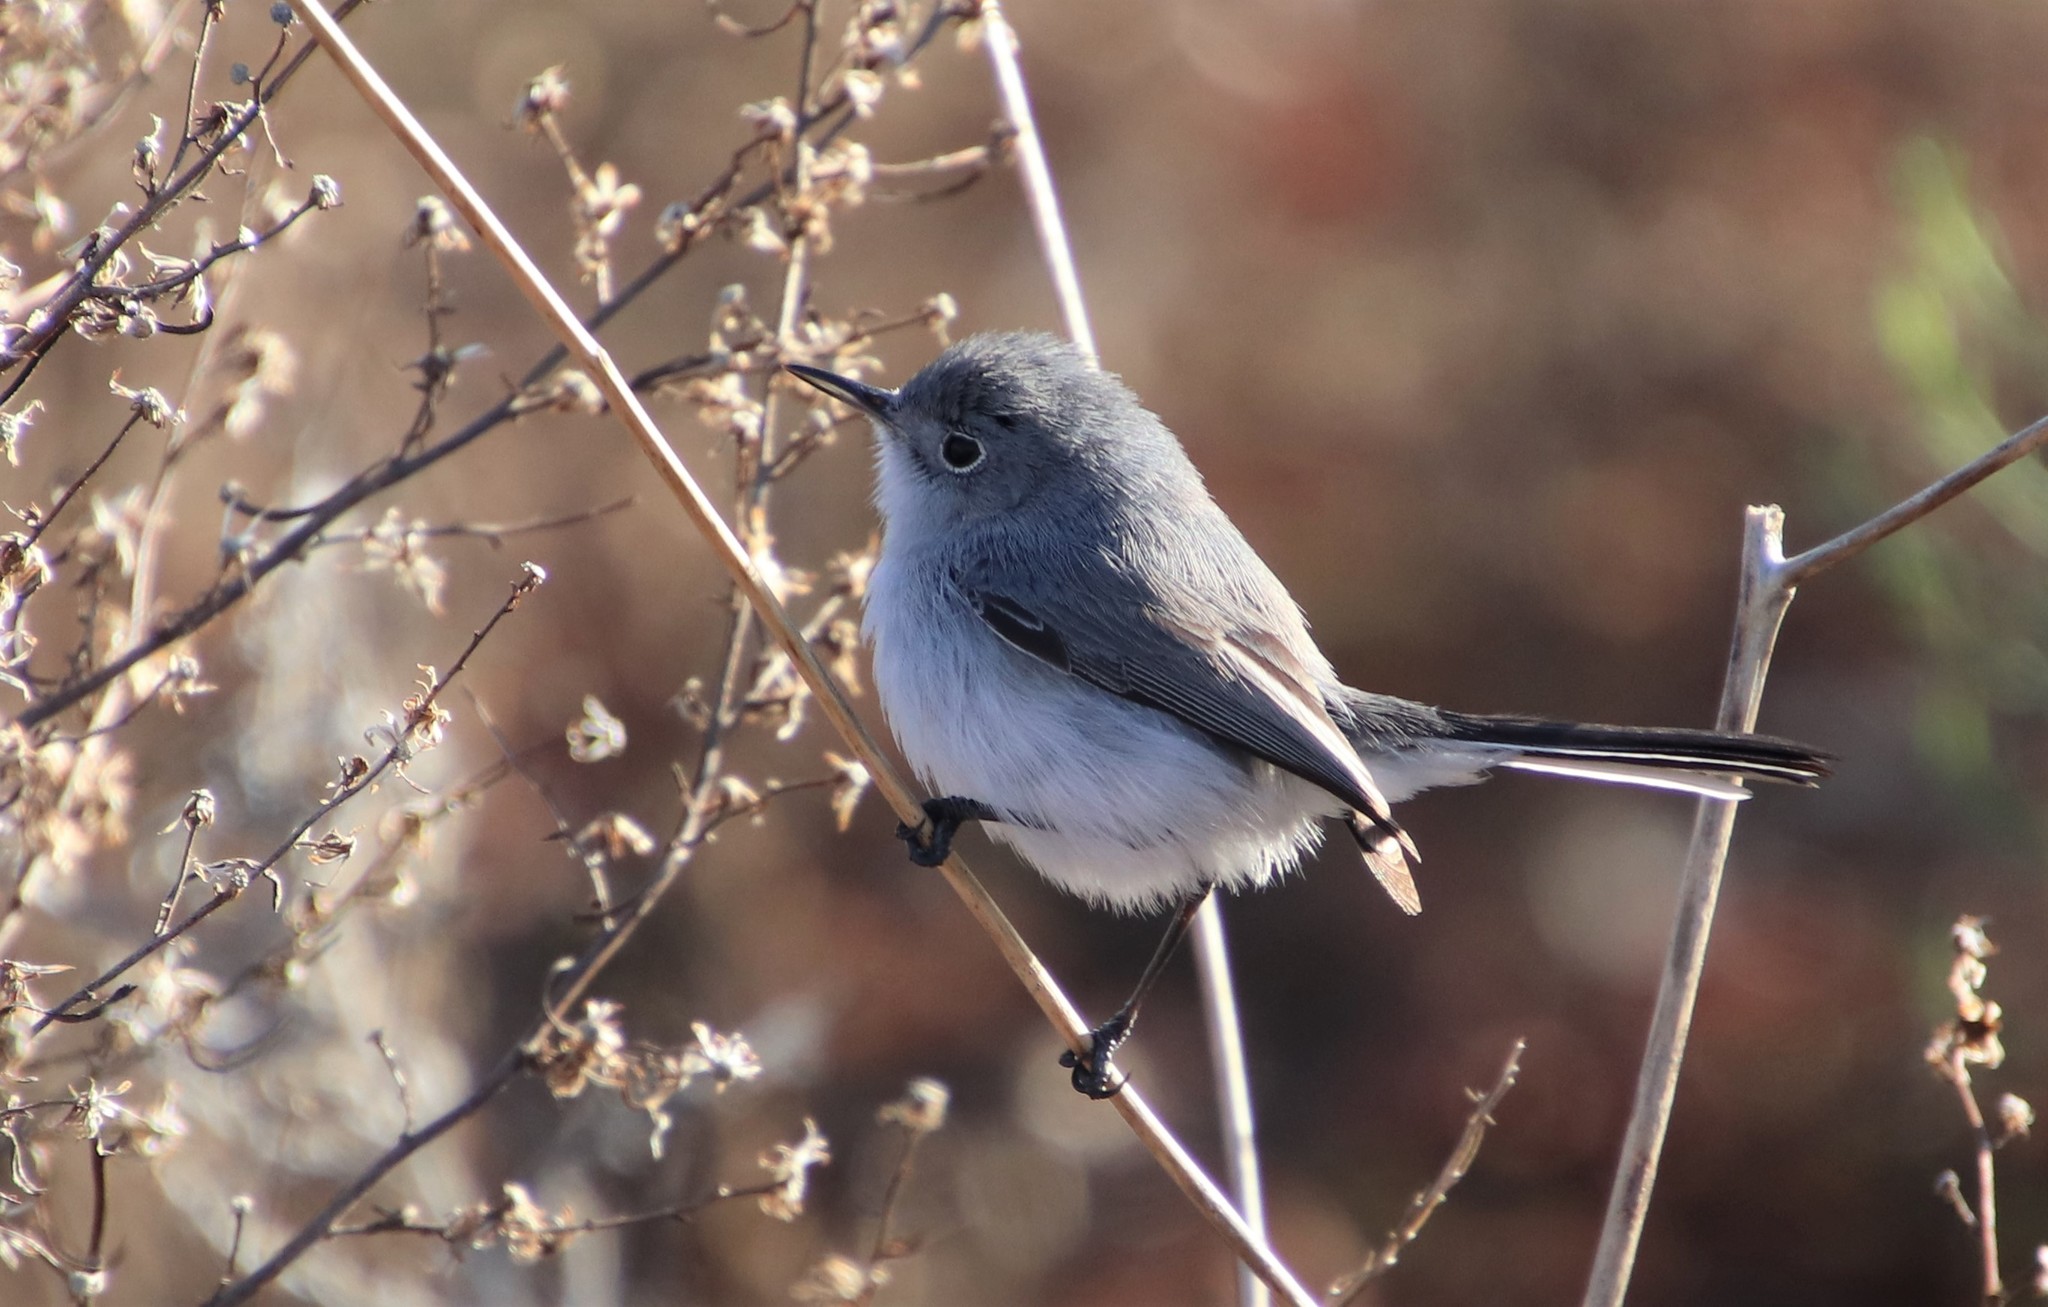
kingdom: Animalia
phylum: Chordata
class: Aves
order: Passeriformes
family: Polioptilidae
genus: Polioptila
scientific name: Polioptila caerulea
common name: Blue-gray gnatcatcher
